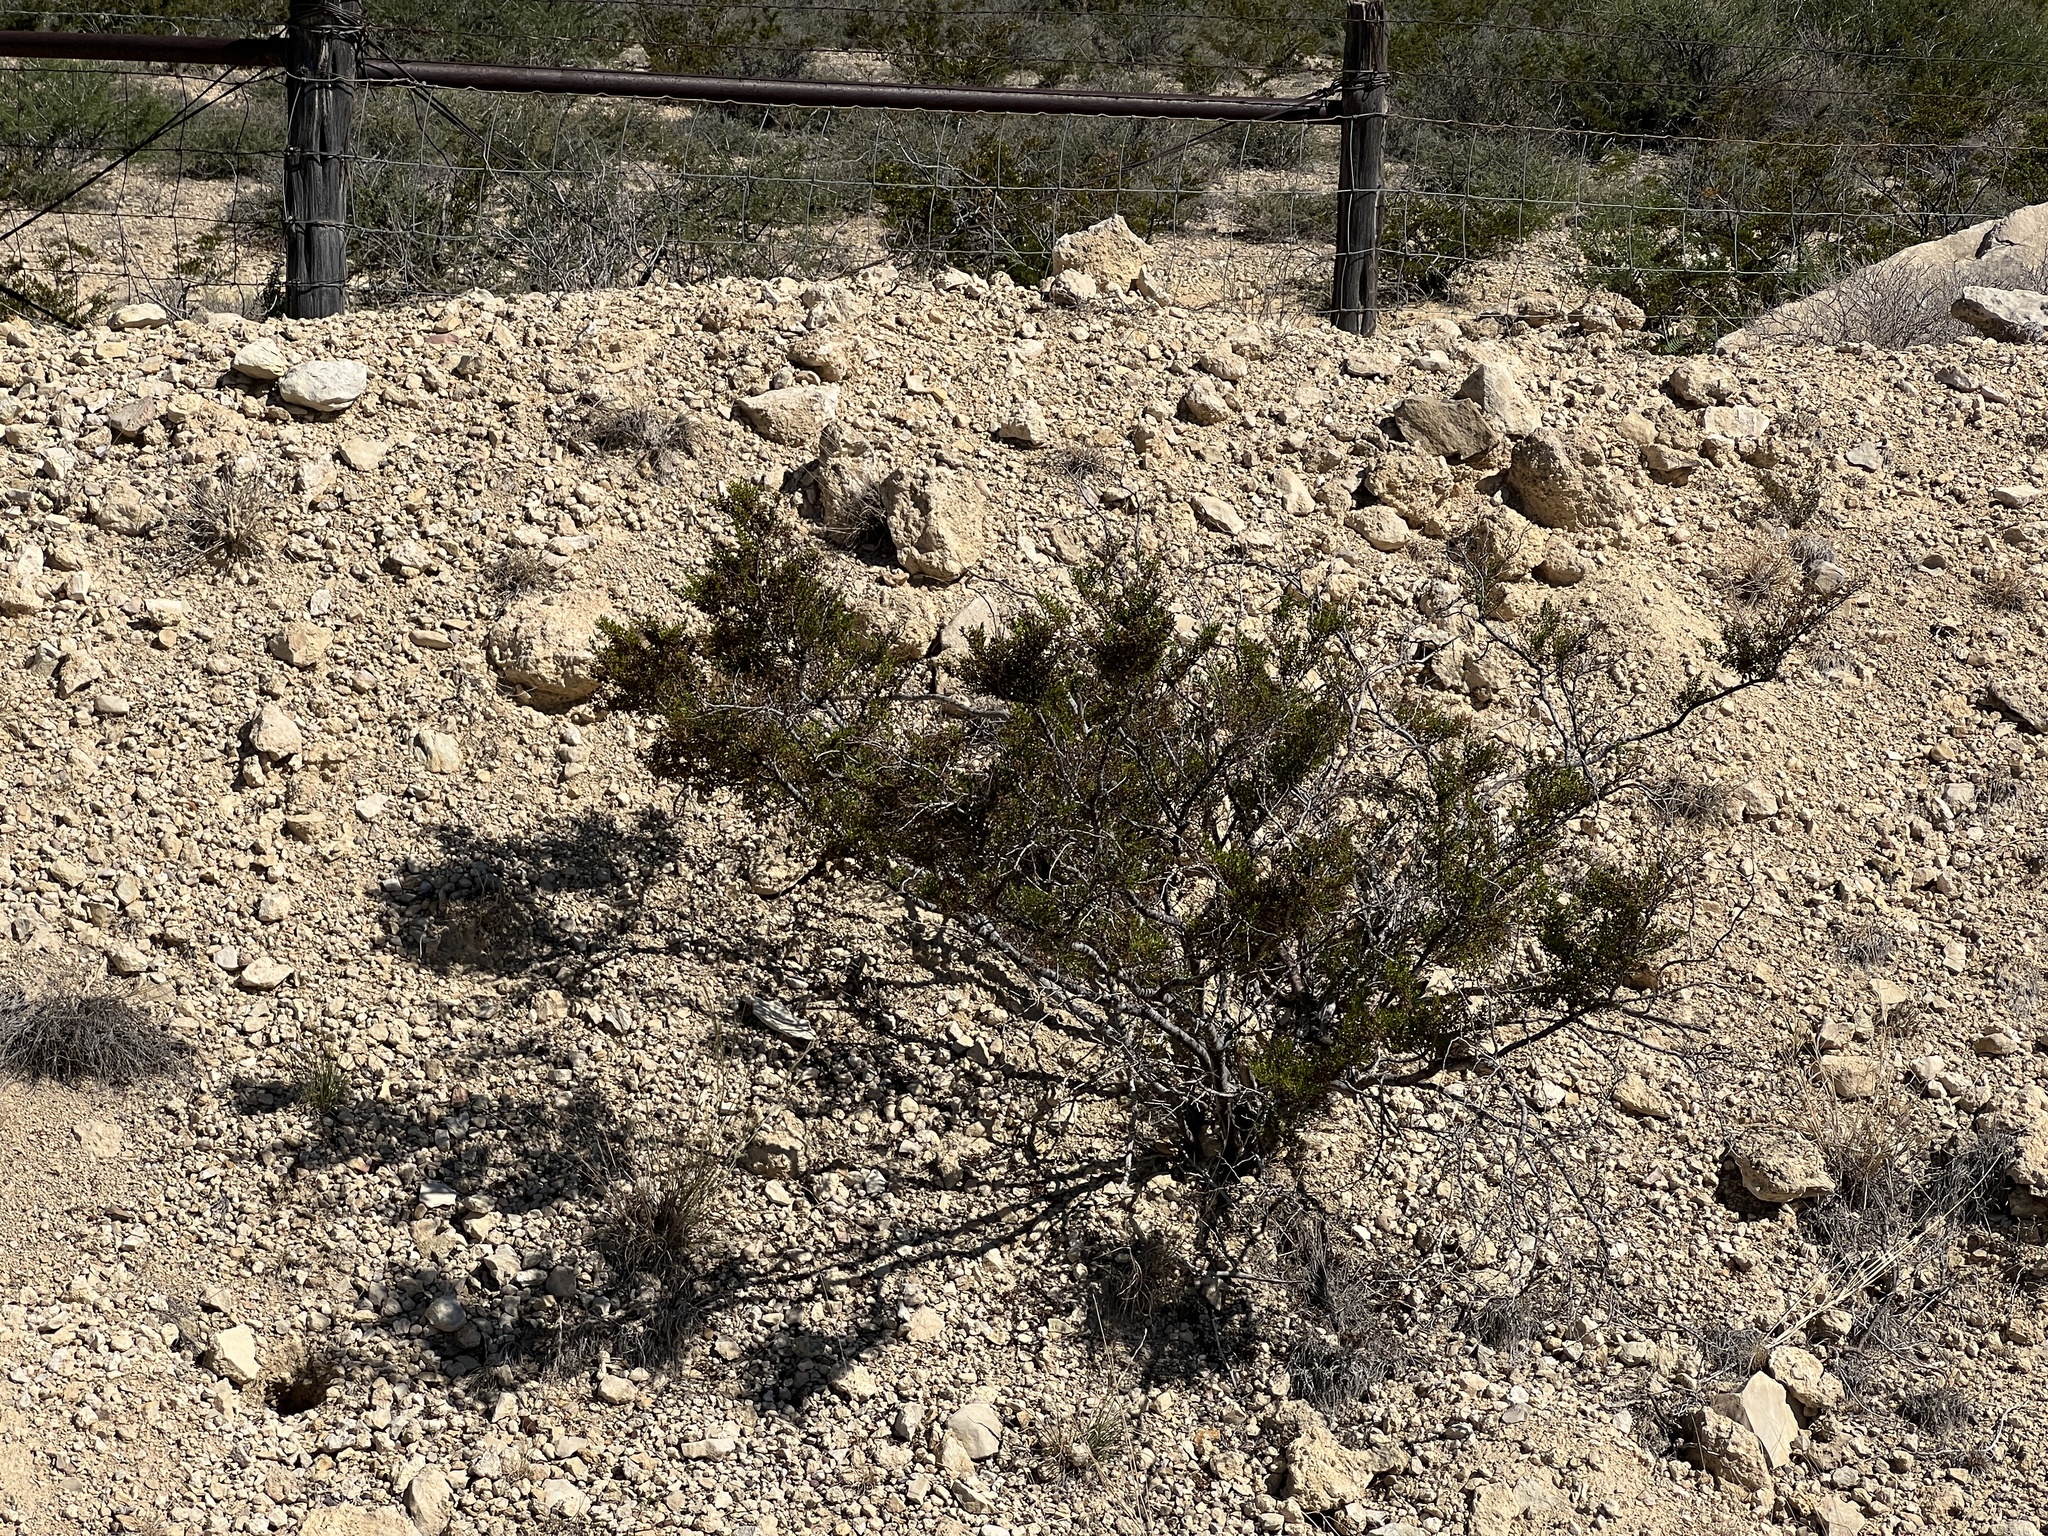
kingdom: Plantae
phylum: Tracheophyta
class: Magnoliopsida
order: Zygophyllales
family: Zygophyllaceae
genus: Larrea
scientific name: Larrea tridentata
